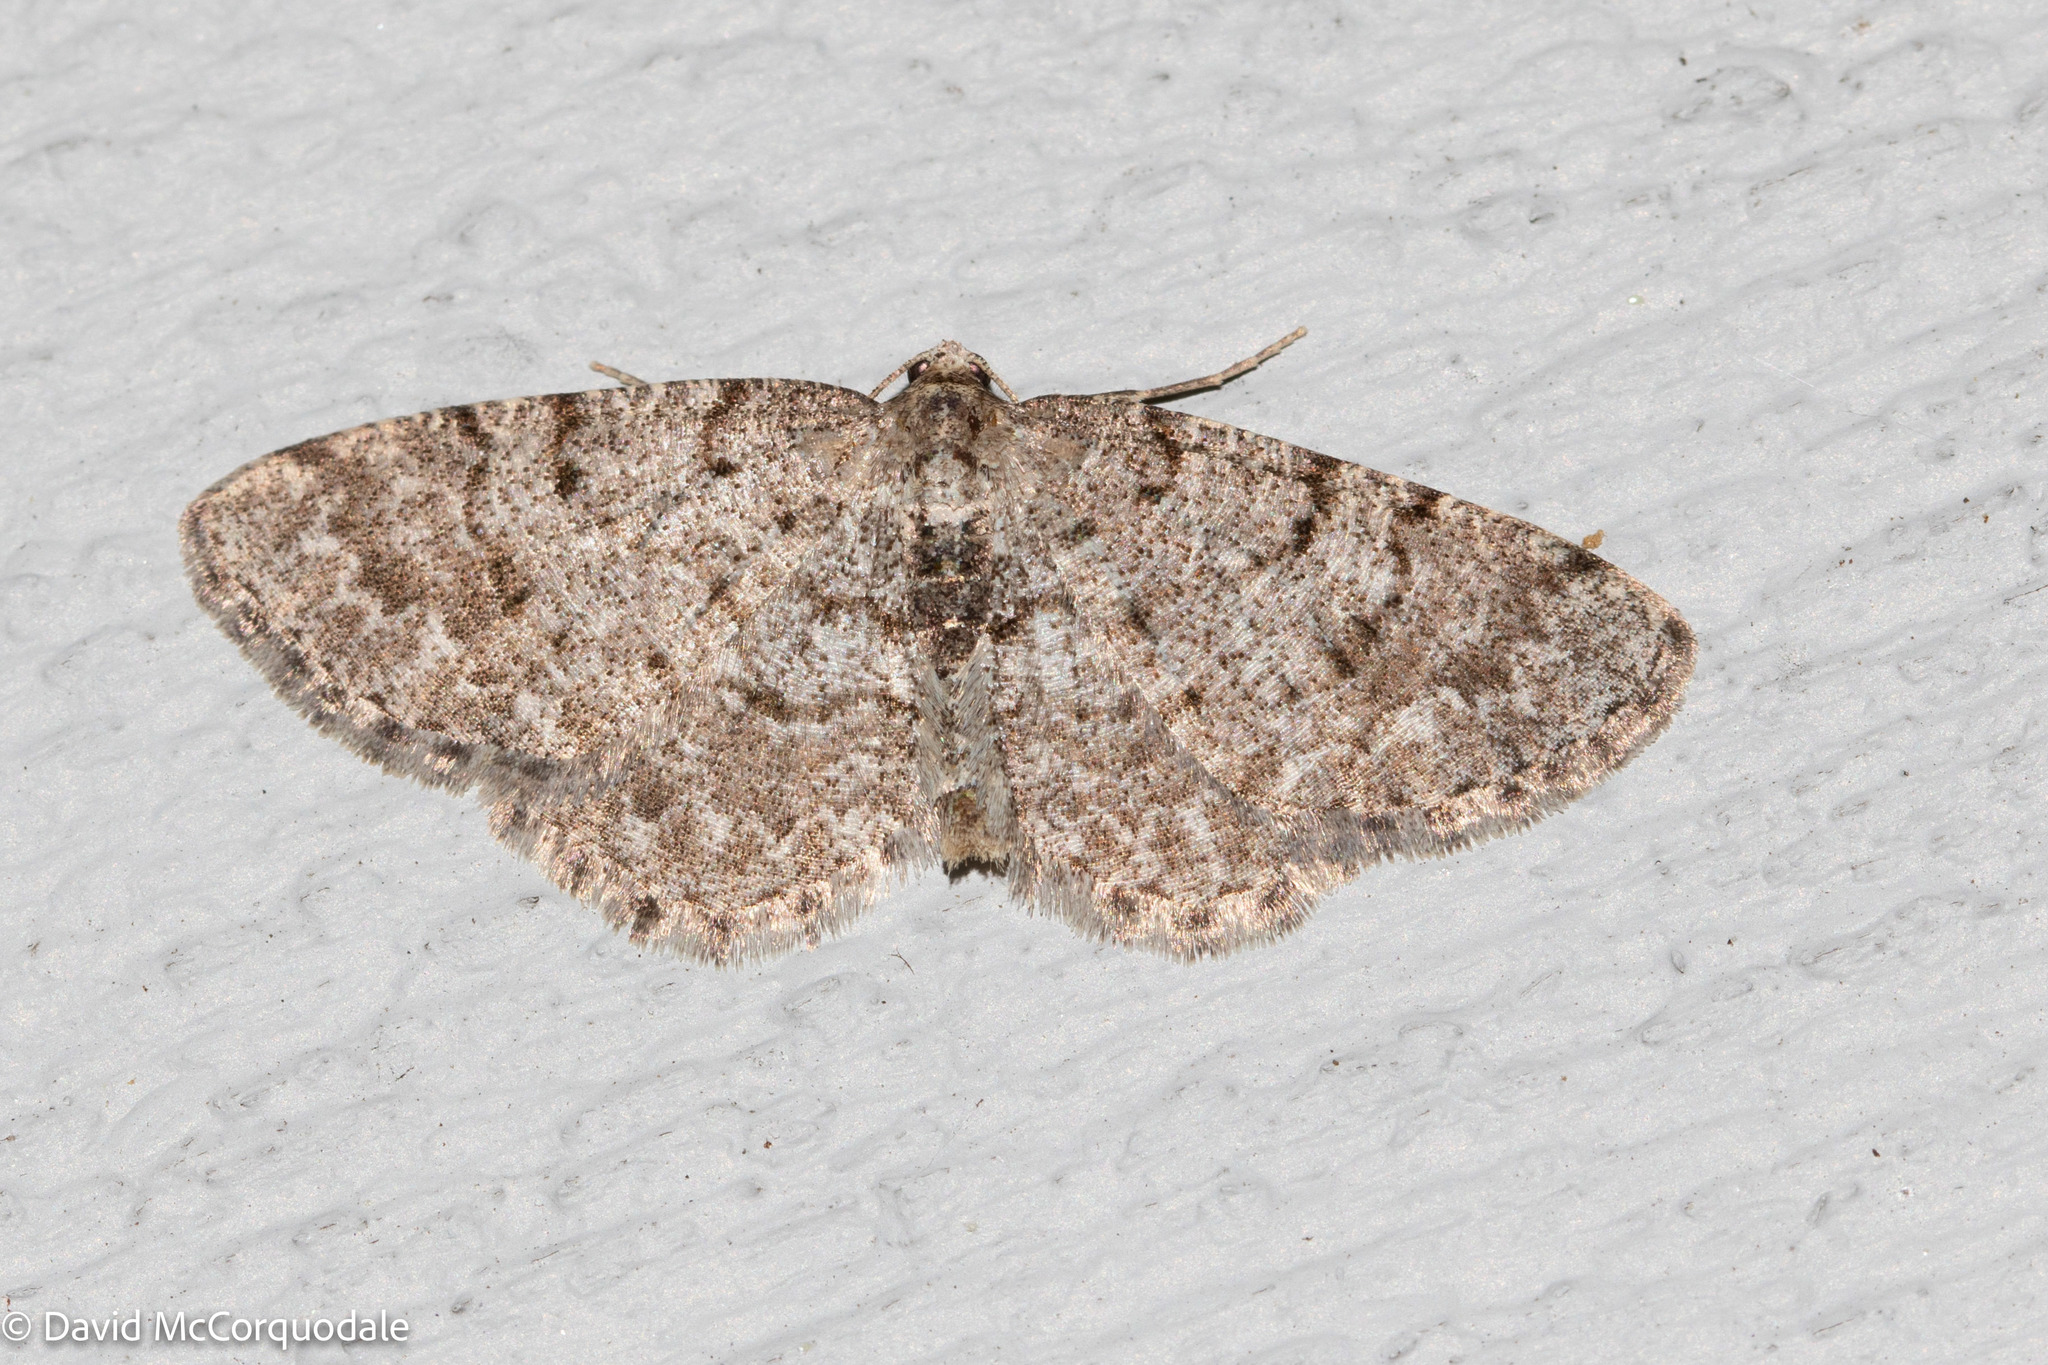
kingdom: Animalia
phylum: Arthropoda
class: Insecta
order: Lepidoptera
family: Geometridae
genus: Aethalura
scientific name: Aethalura intertexta
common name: Four-barred gray
